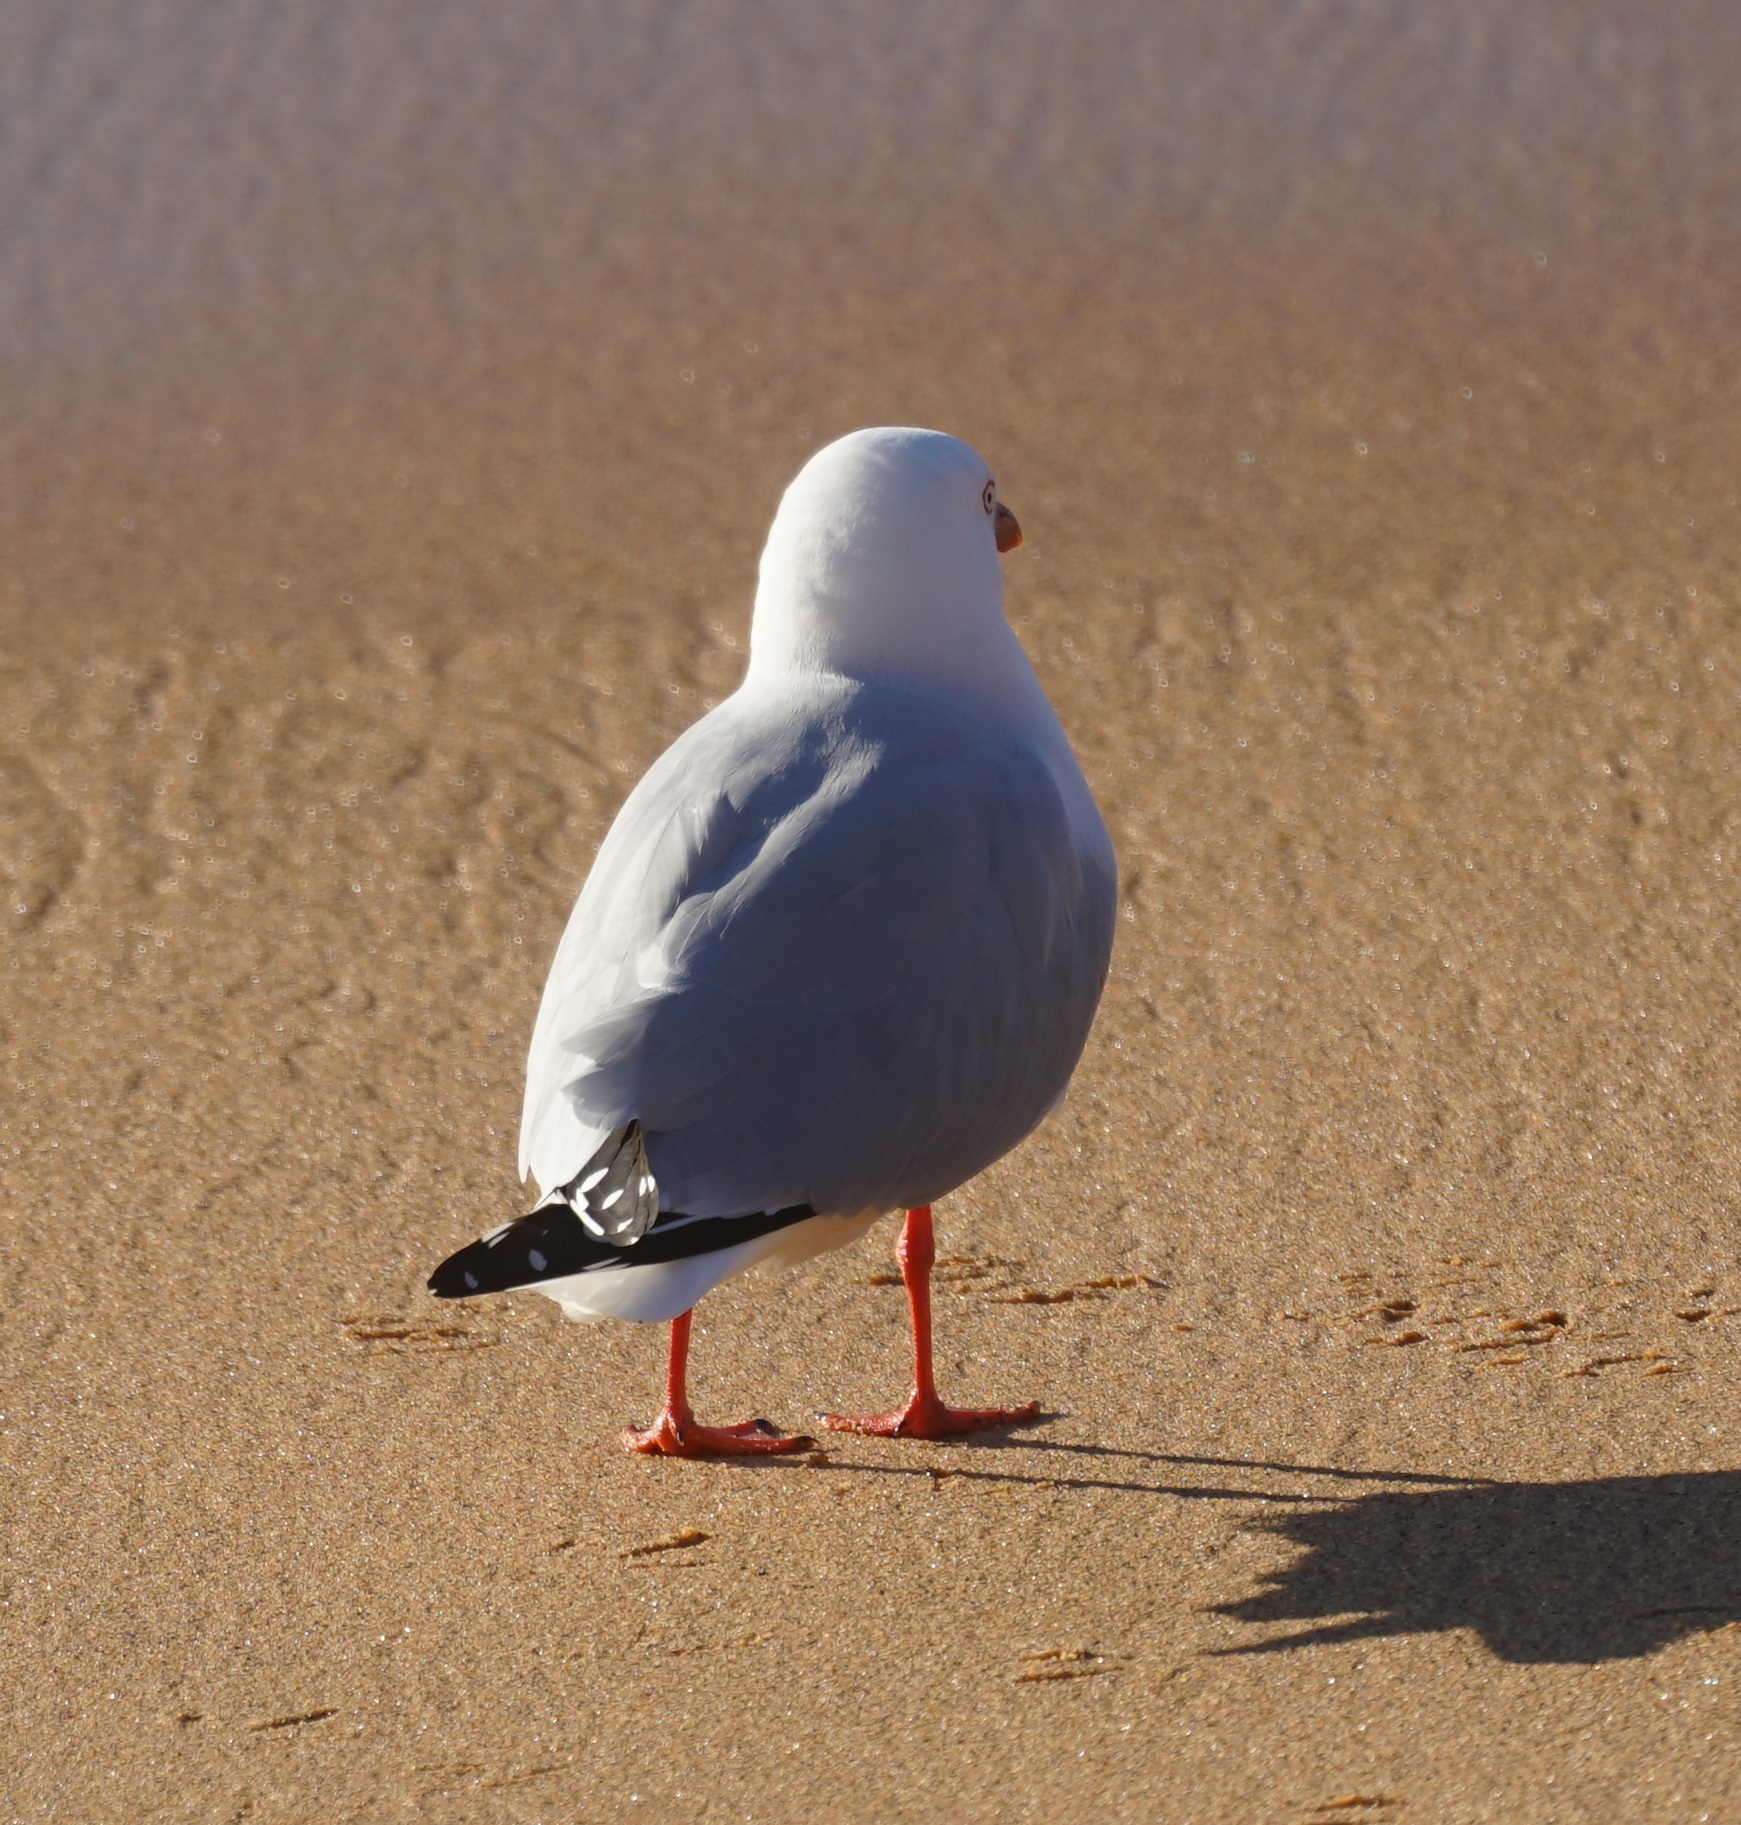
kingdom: Animalia
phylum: Chordata
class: Aves
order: Charadriiformes
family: Laridae
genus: Chroicocephalus
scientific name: Chroicocephalus novaehollandiae
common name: Silver gull
